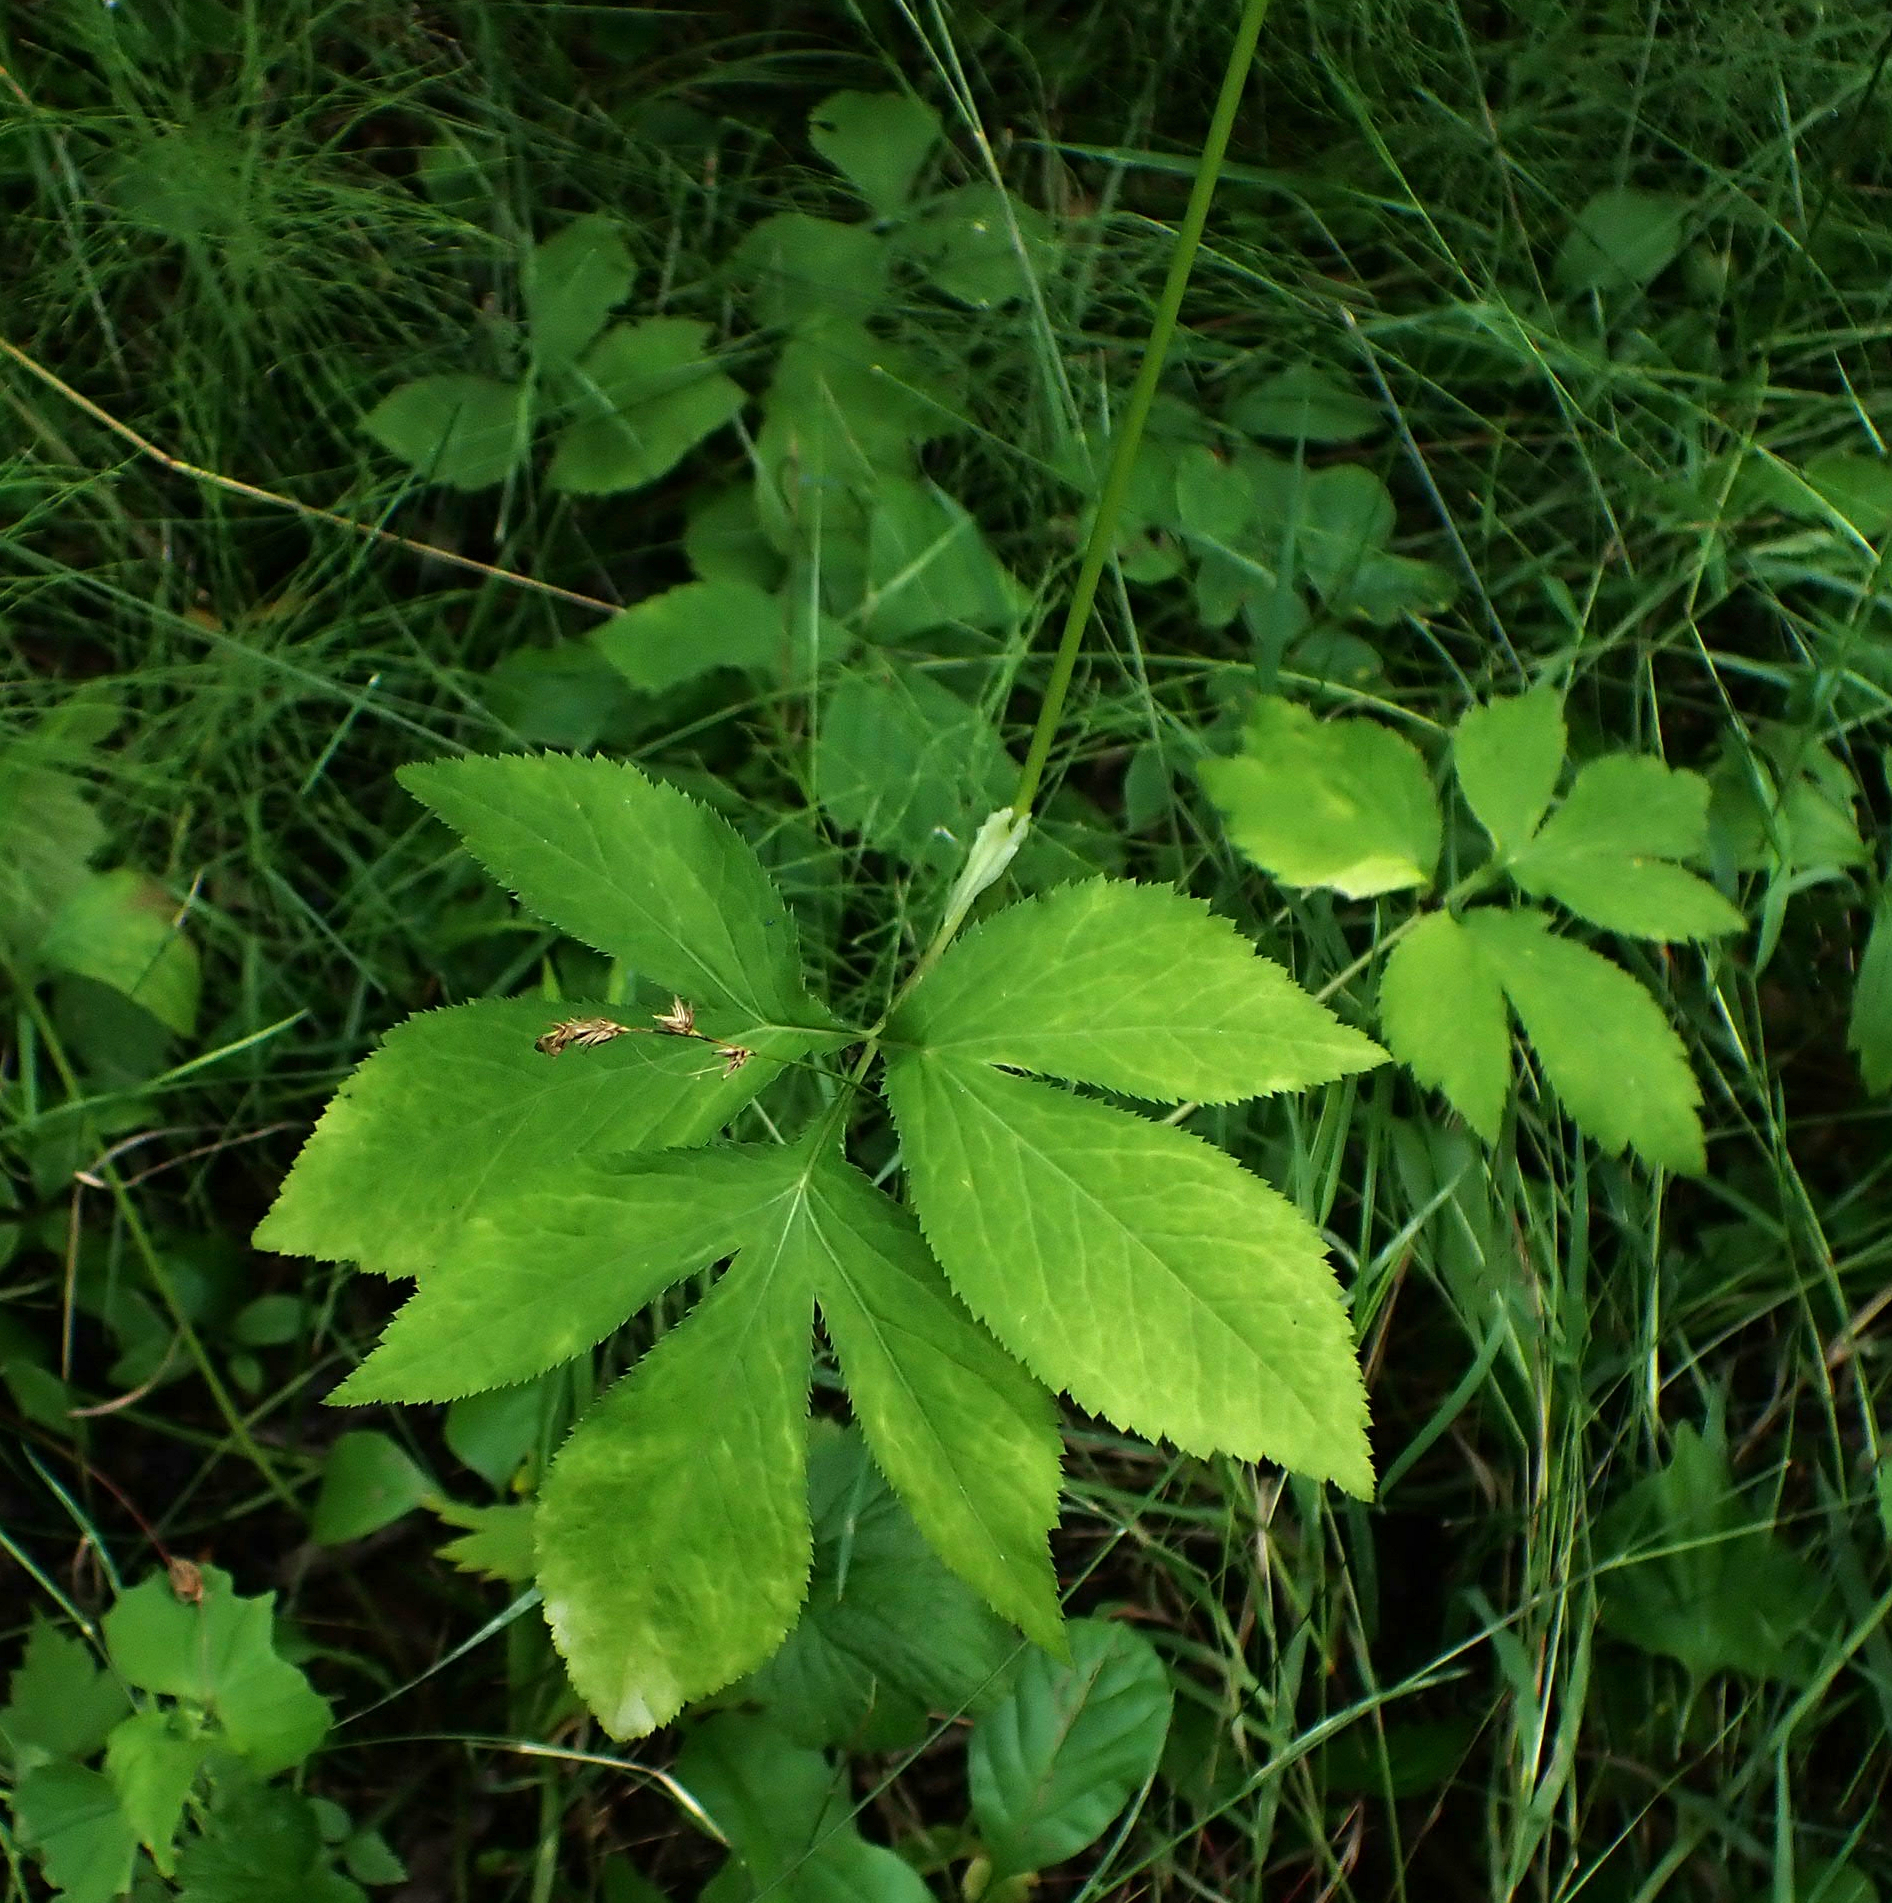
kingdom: Plantae
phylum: Tracheophyta
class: Magnoliopsida
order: Apiales
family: Apiaceae
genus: Cryptotaenia
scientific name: Cryptotaenia canadensis
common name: Honewort
